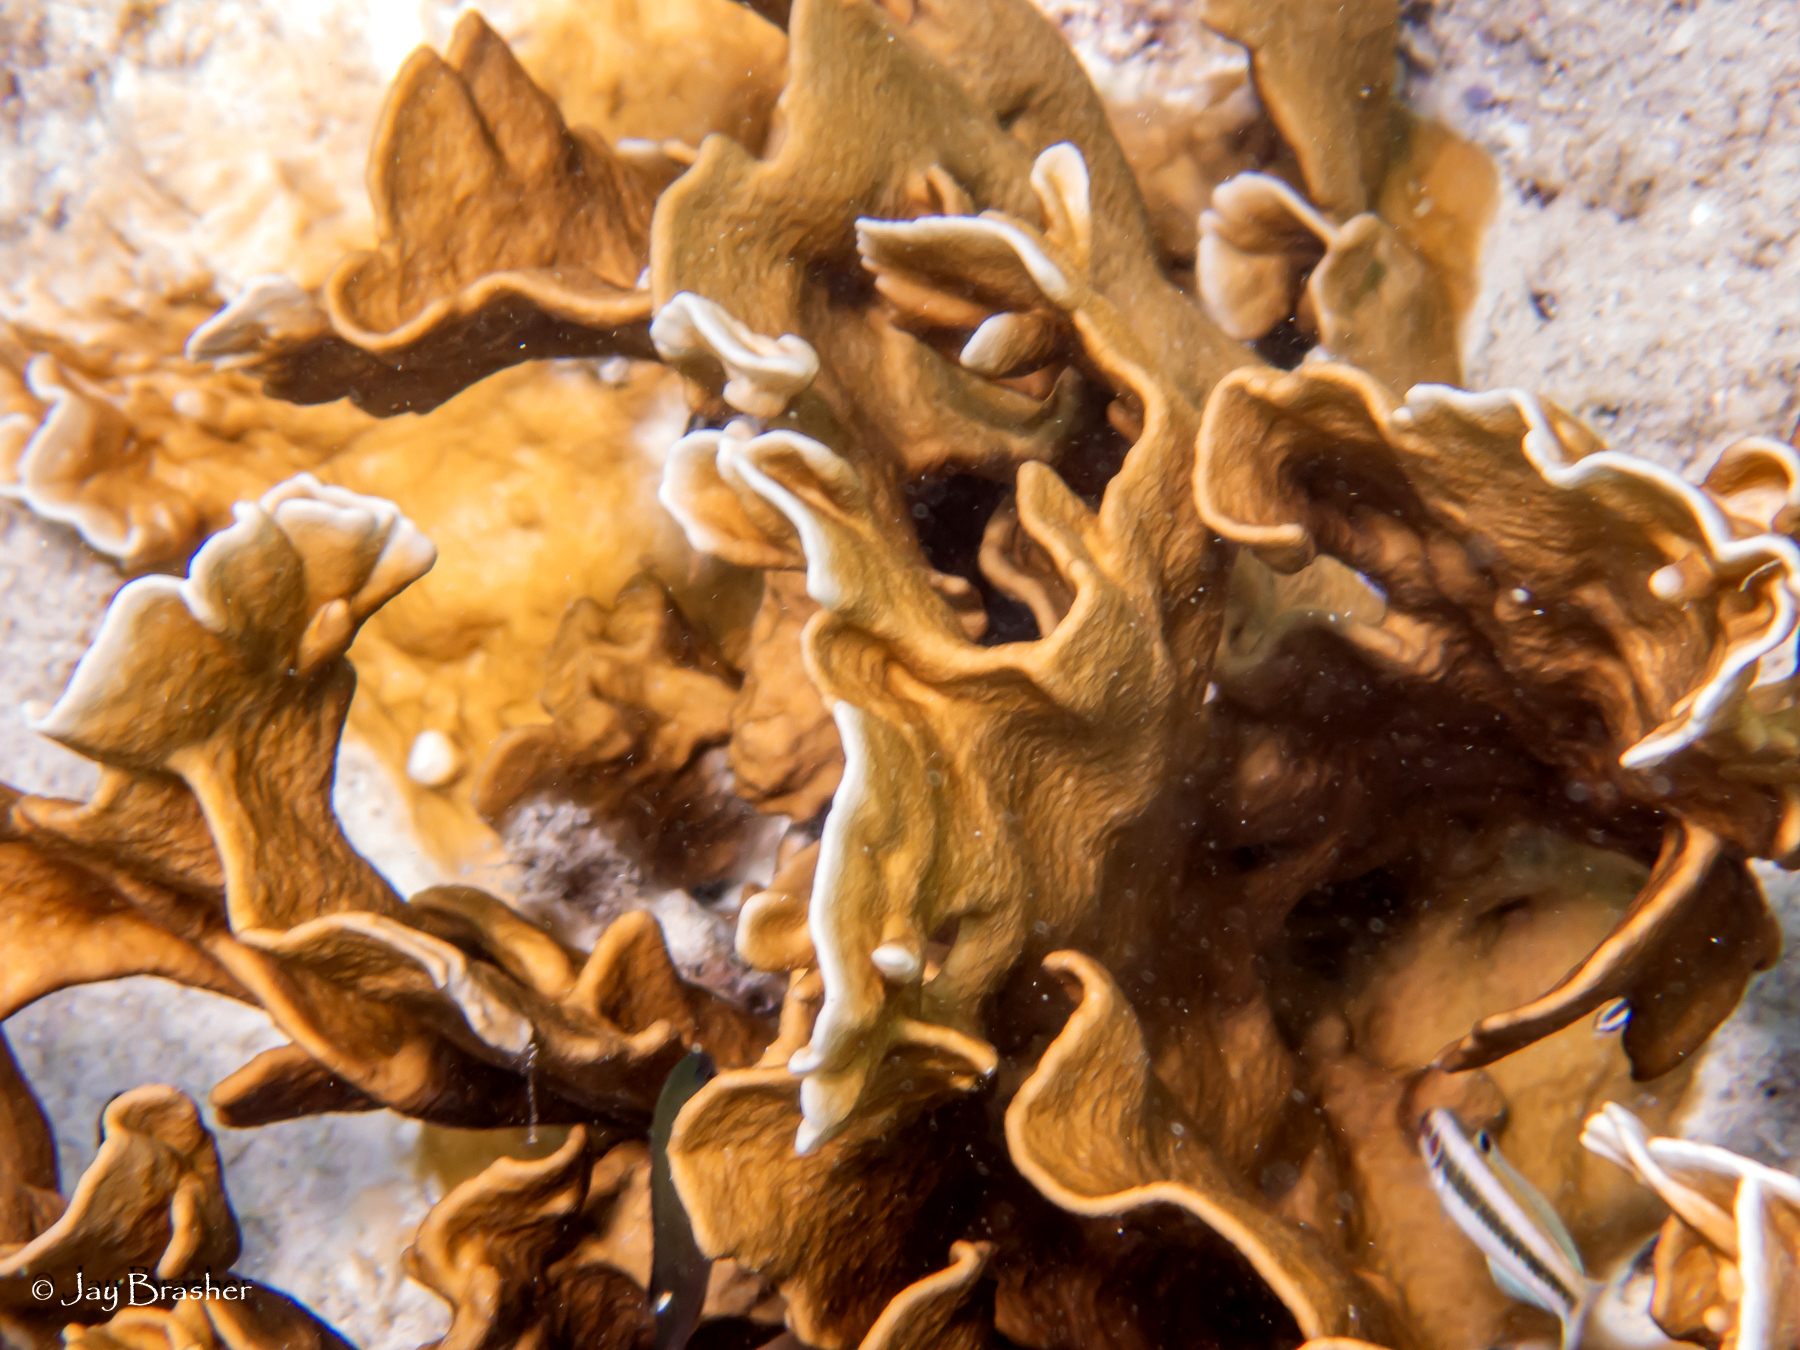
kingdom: Animalia
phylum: Cnidaria
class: Hydrozoa
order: Anthoathecata
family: Milleporidae
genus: Millepora
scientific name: Millepora complanata
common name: Bladed fire coral
